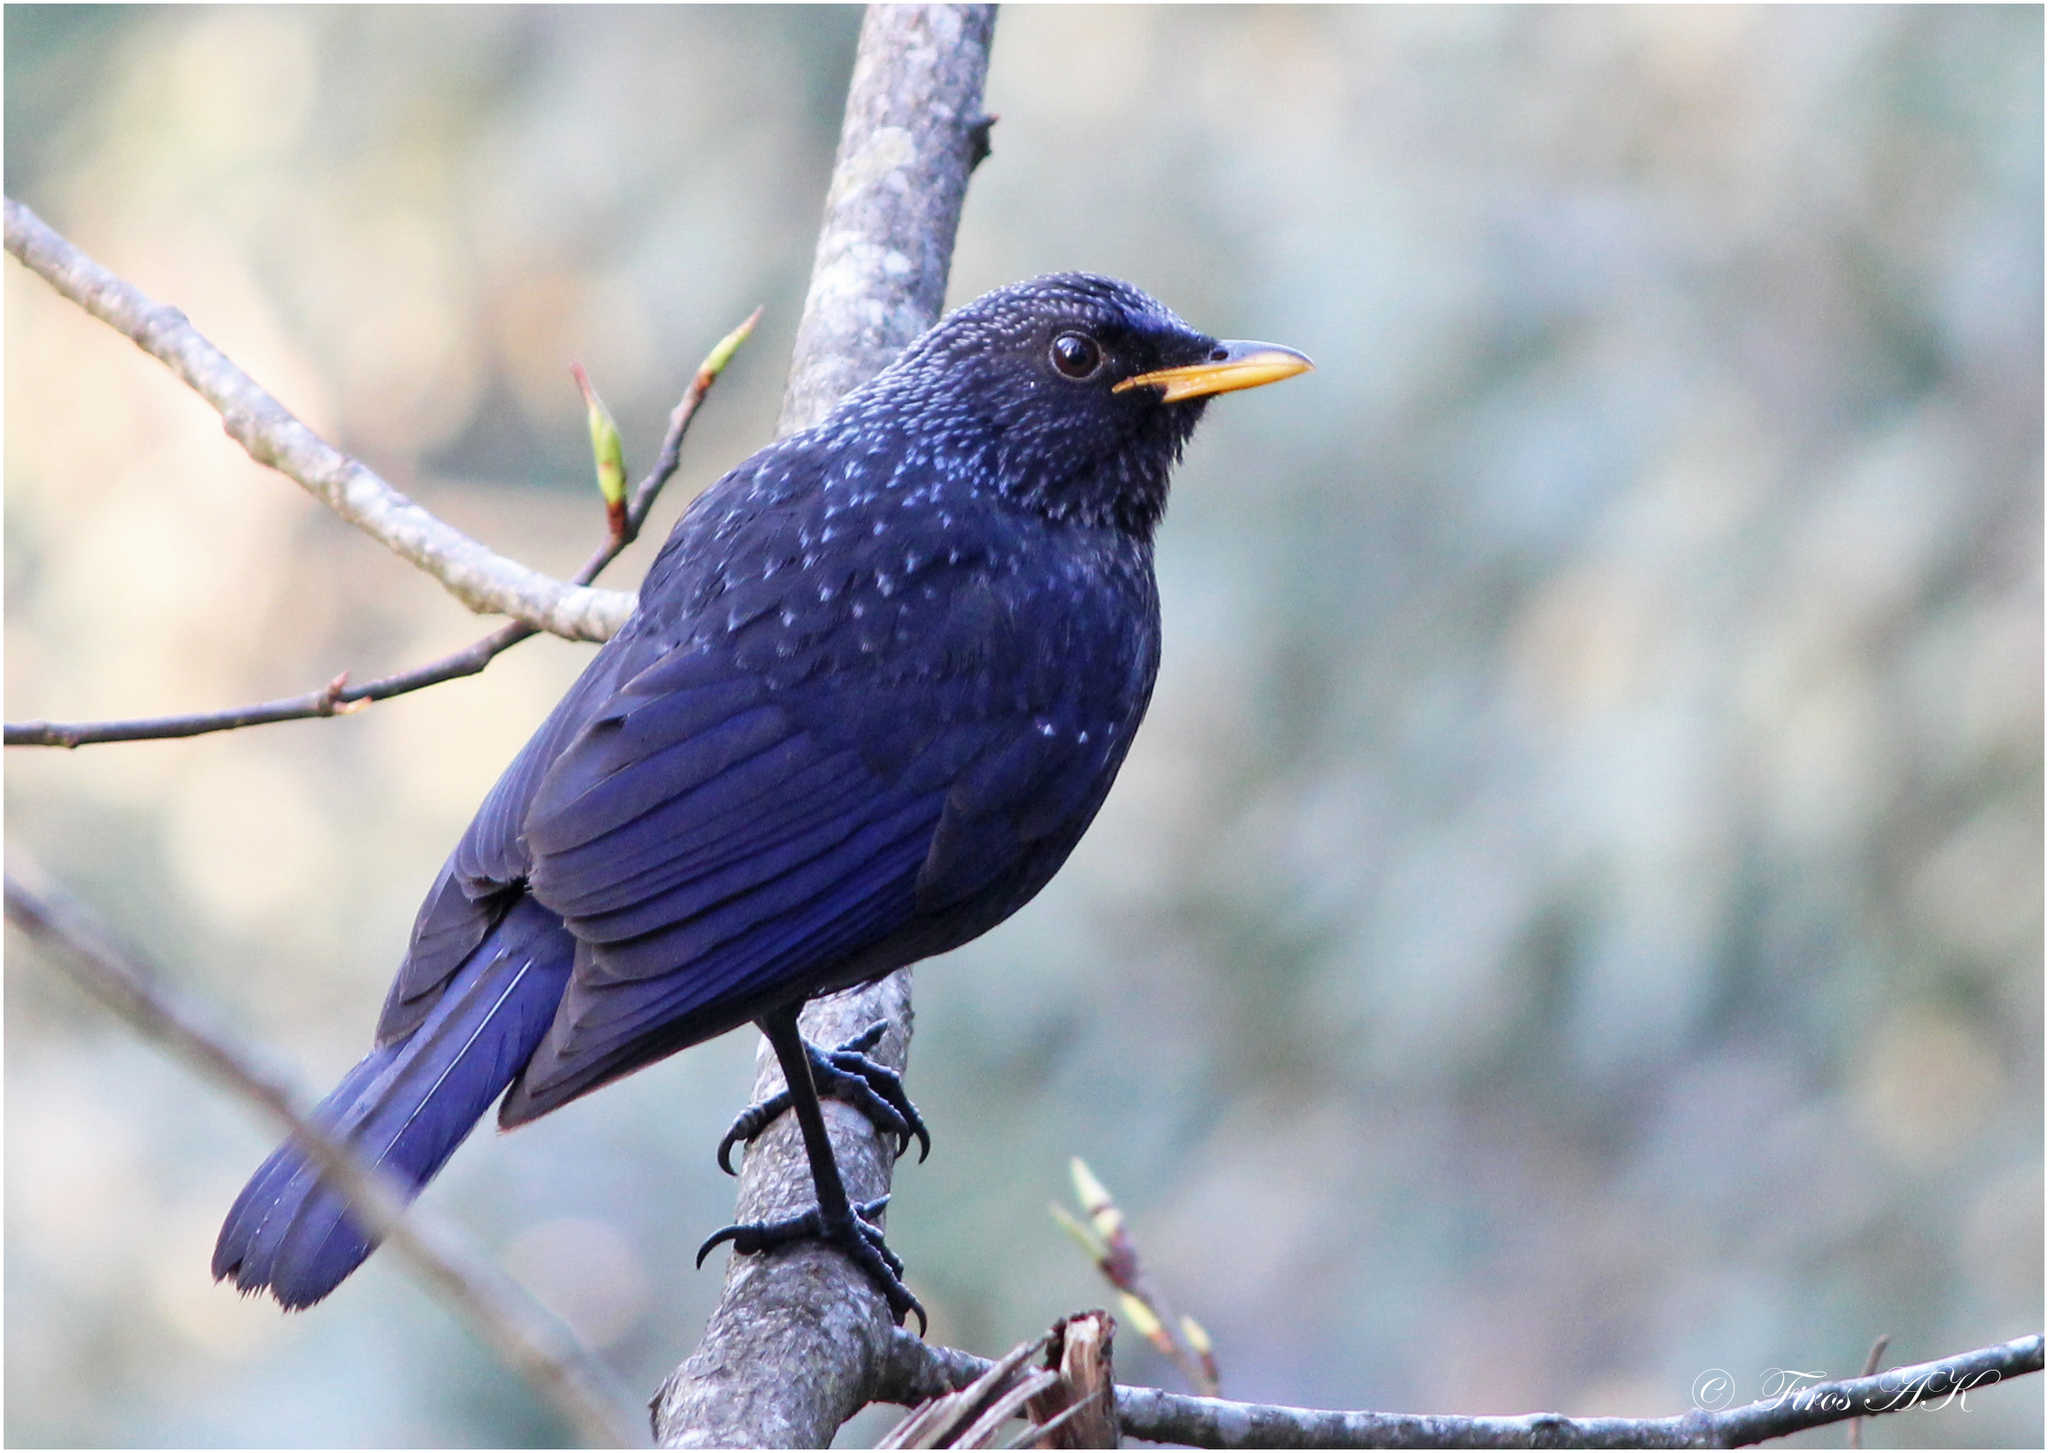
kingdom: Animalia
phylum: Chordata
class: Aves
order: Passeriformes
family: Muscicapidae
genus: Myophonus
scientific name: Myophonus caeruleus
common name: Blue whistling-thrush
